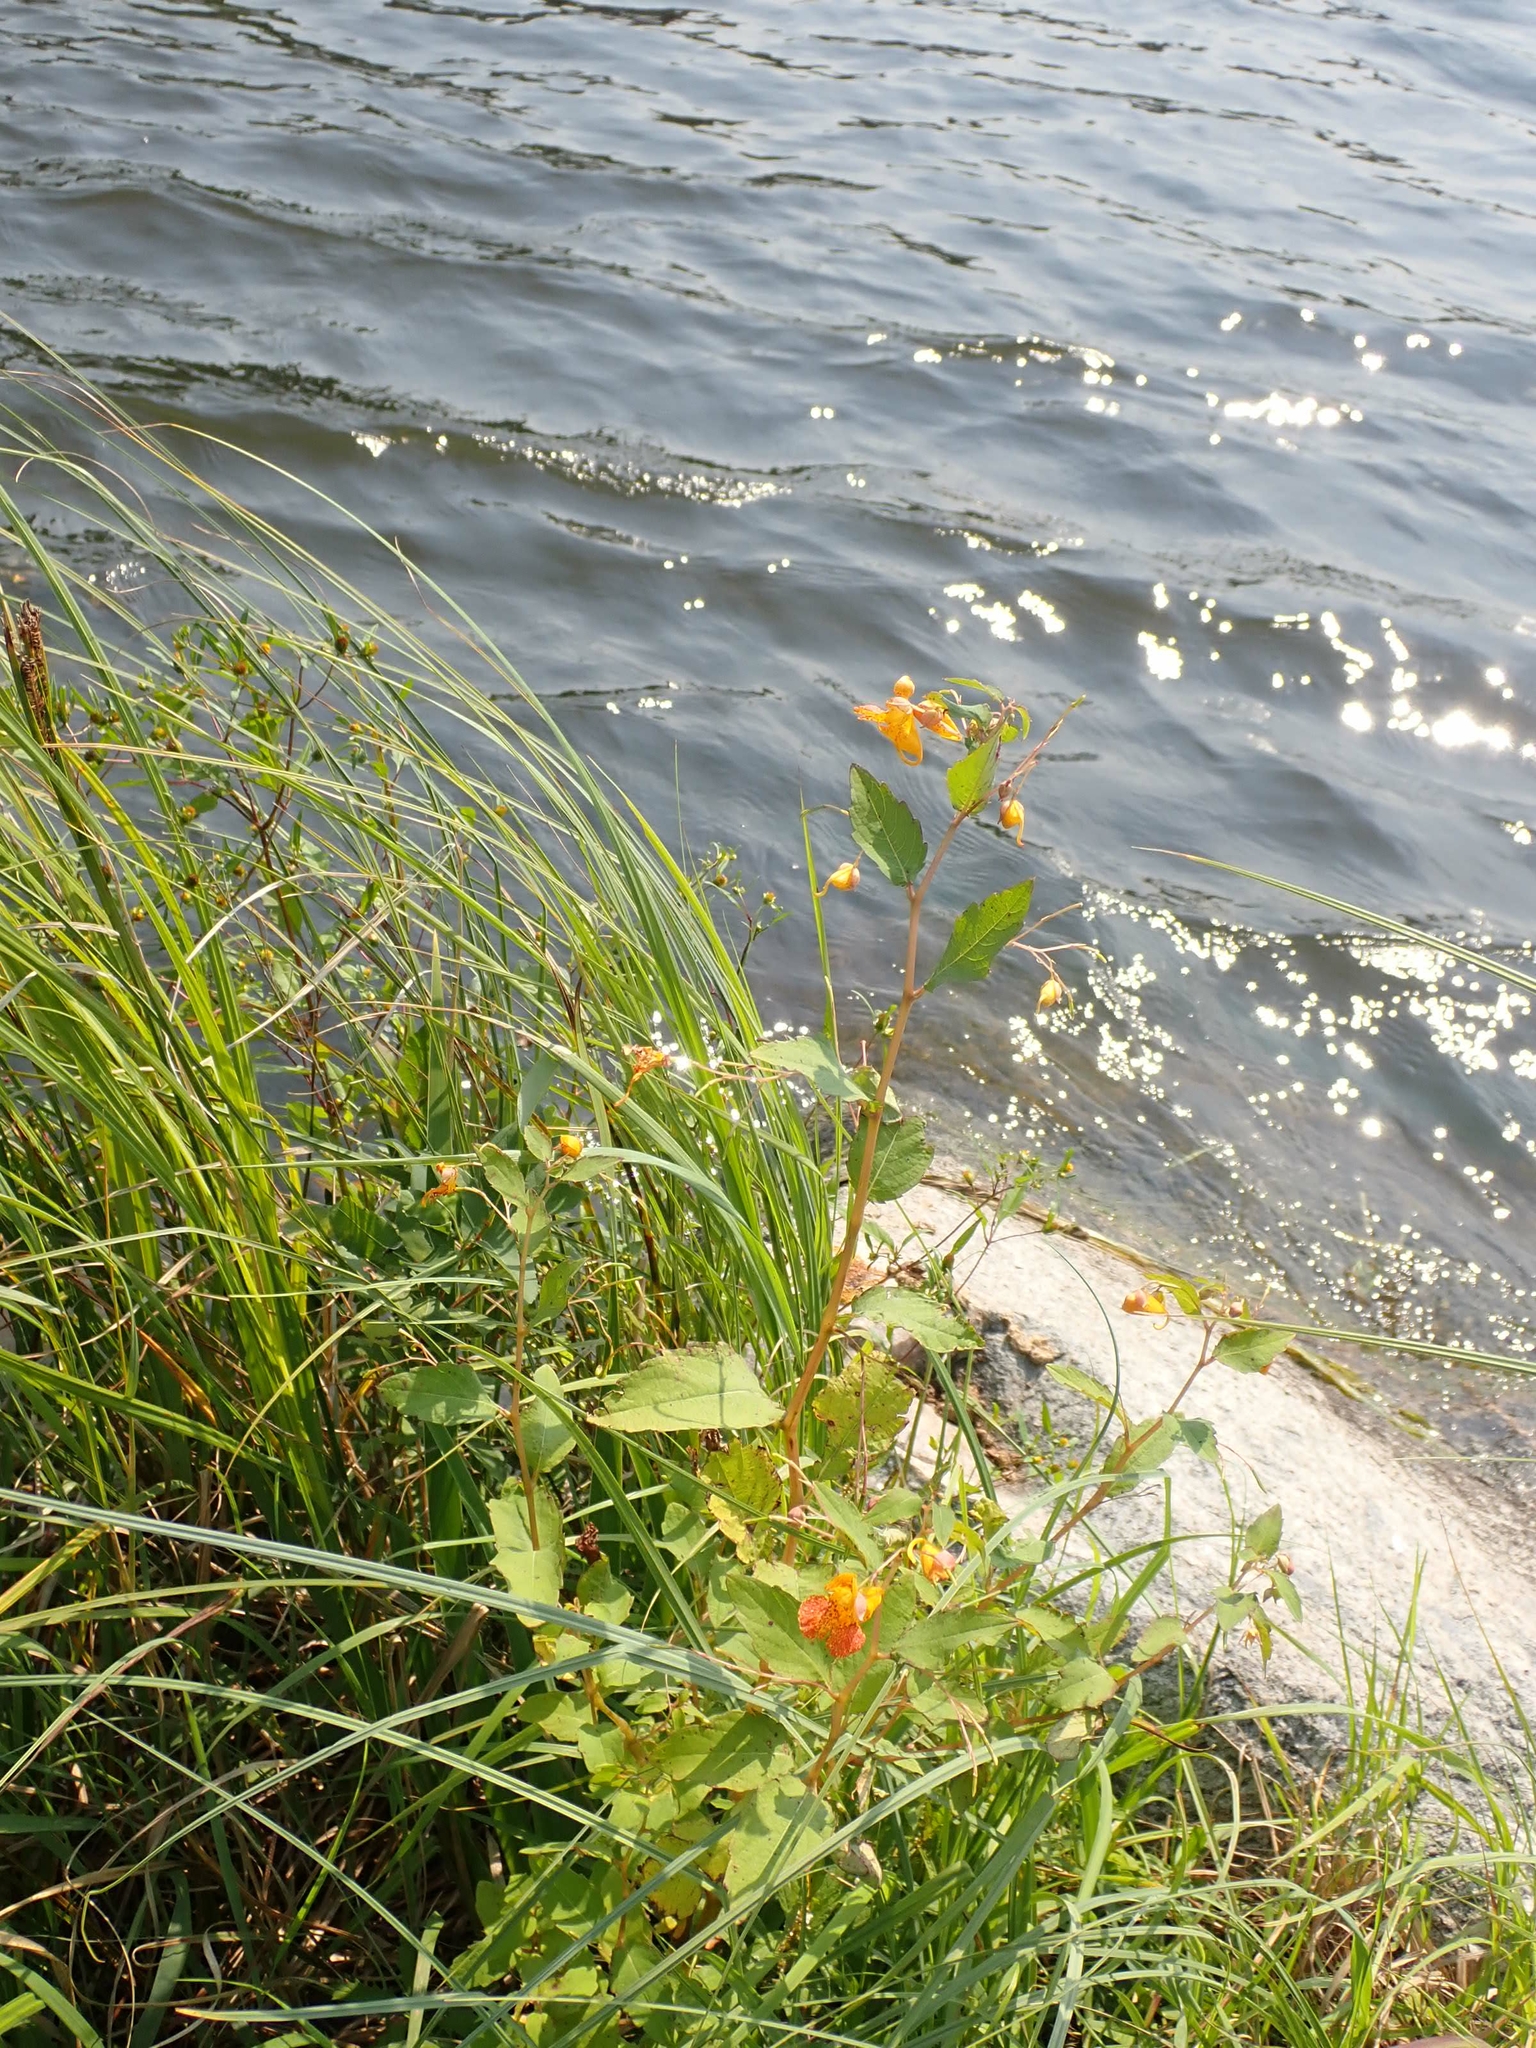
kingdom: Plantae
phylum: Tracheophyta
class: Magnoliopsida
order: Ericales
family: Balsaminaceae
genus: Impatiens
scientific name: Impatiens capensis
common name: Orange balsam
